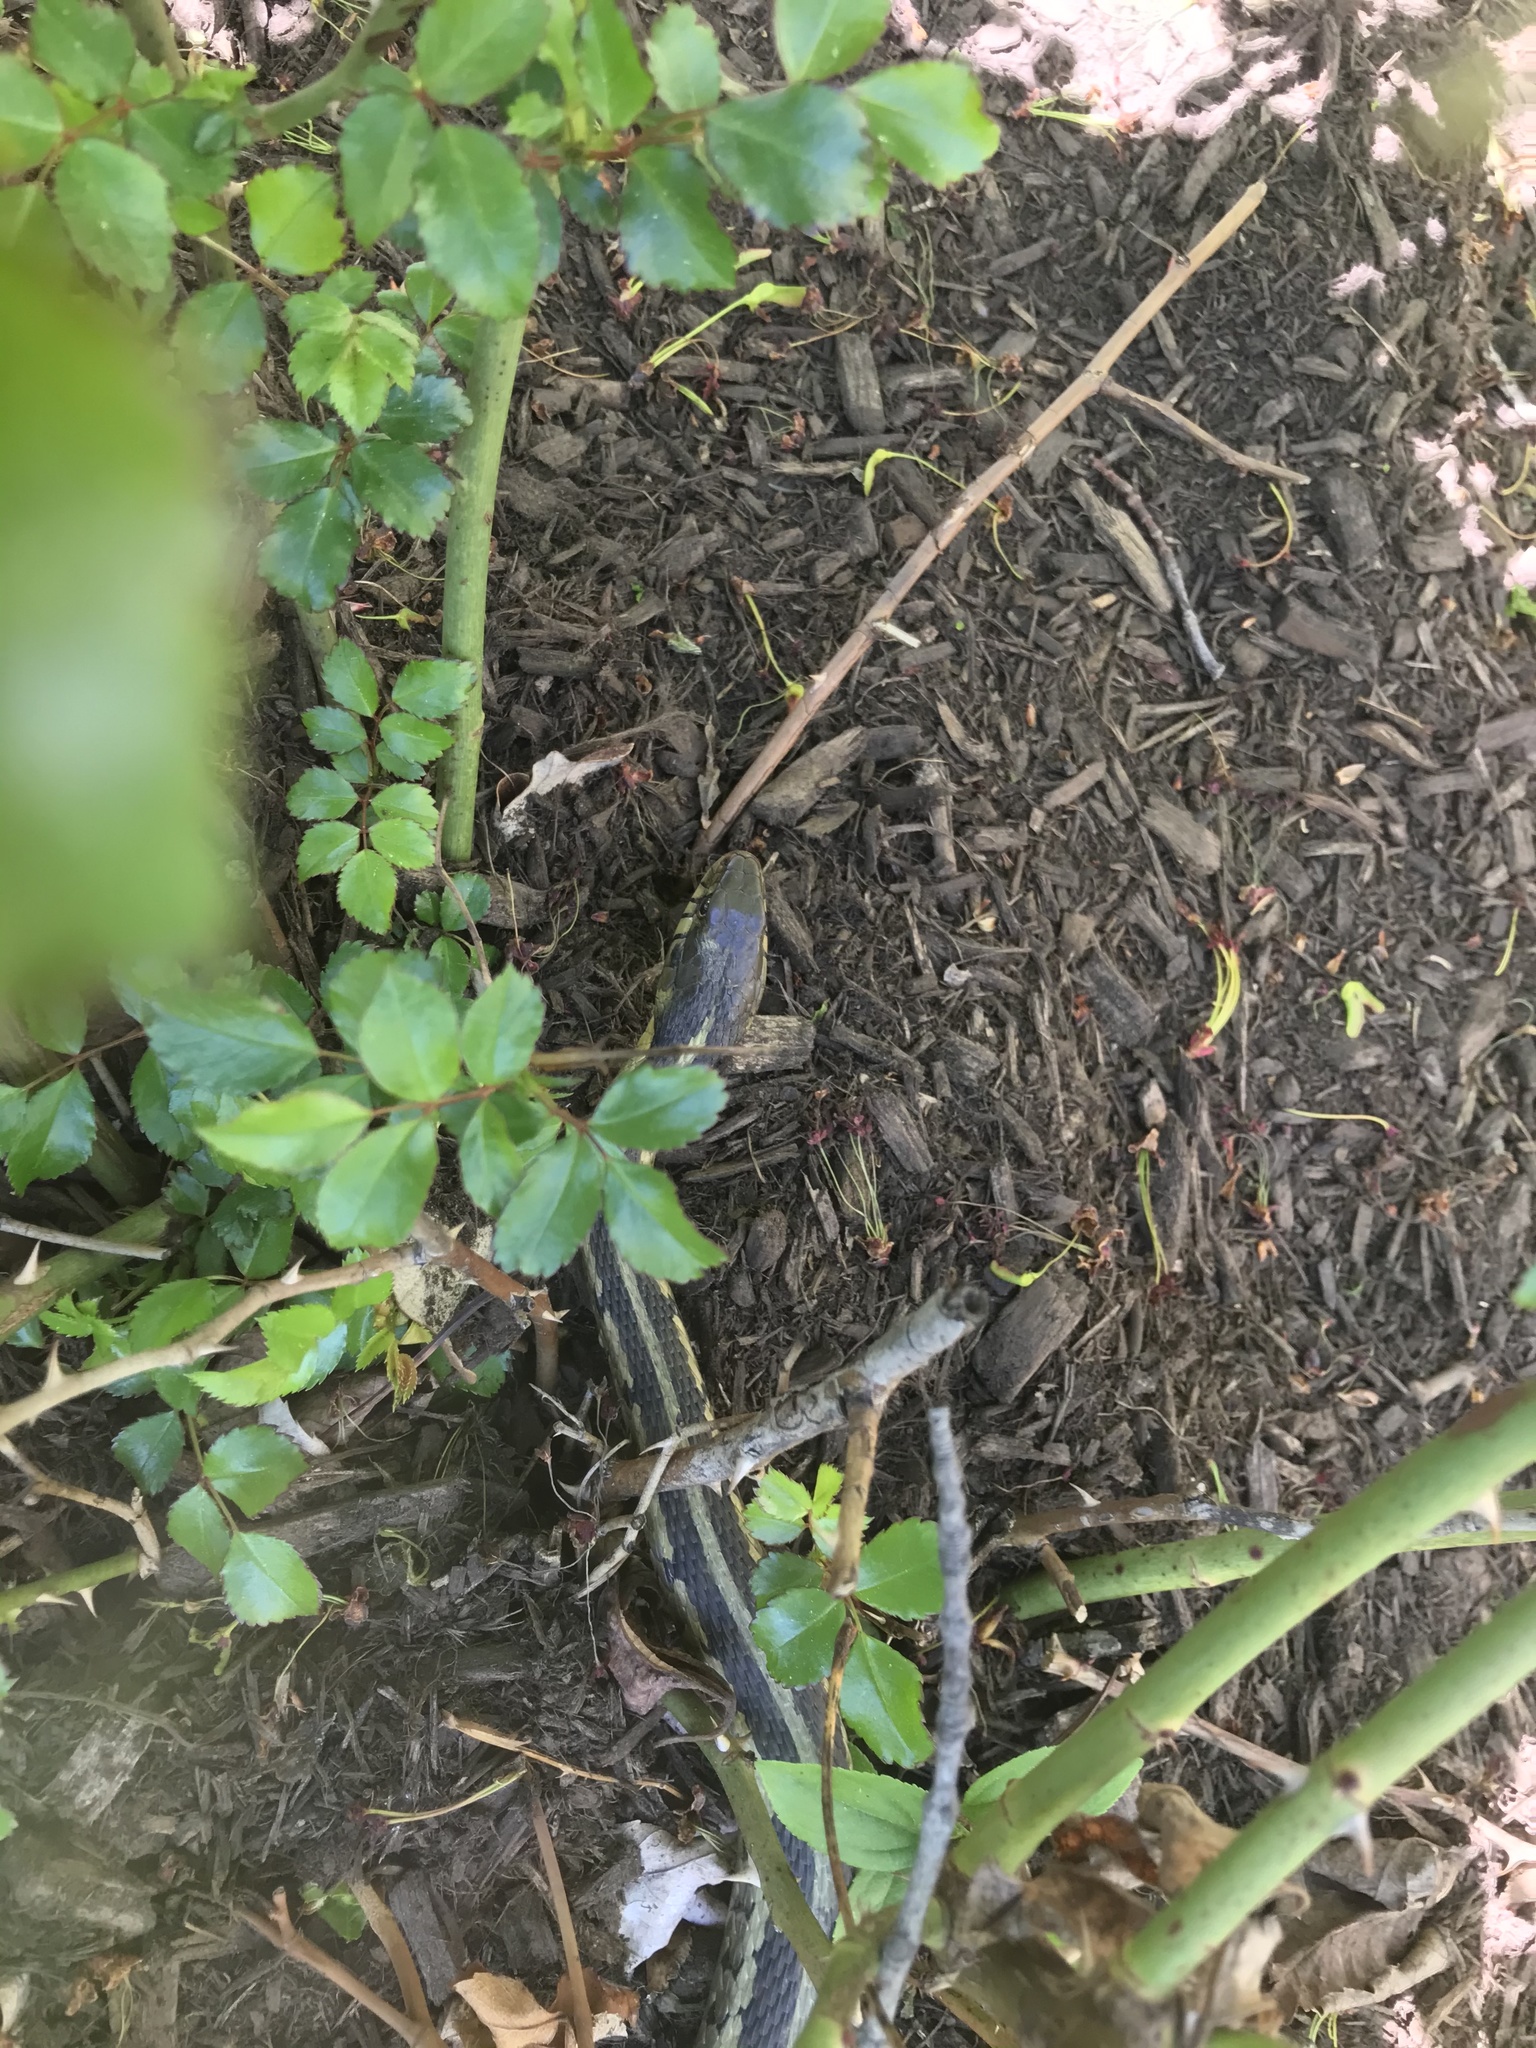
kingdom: Animalia
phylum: Chordata
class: Squamata
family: Colubridae
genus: Thamnophis
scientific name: Thamnophis sirtalis
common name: Common garter snake
